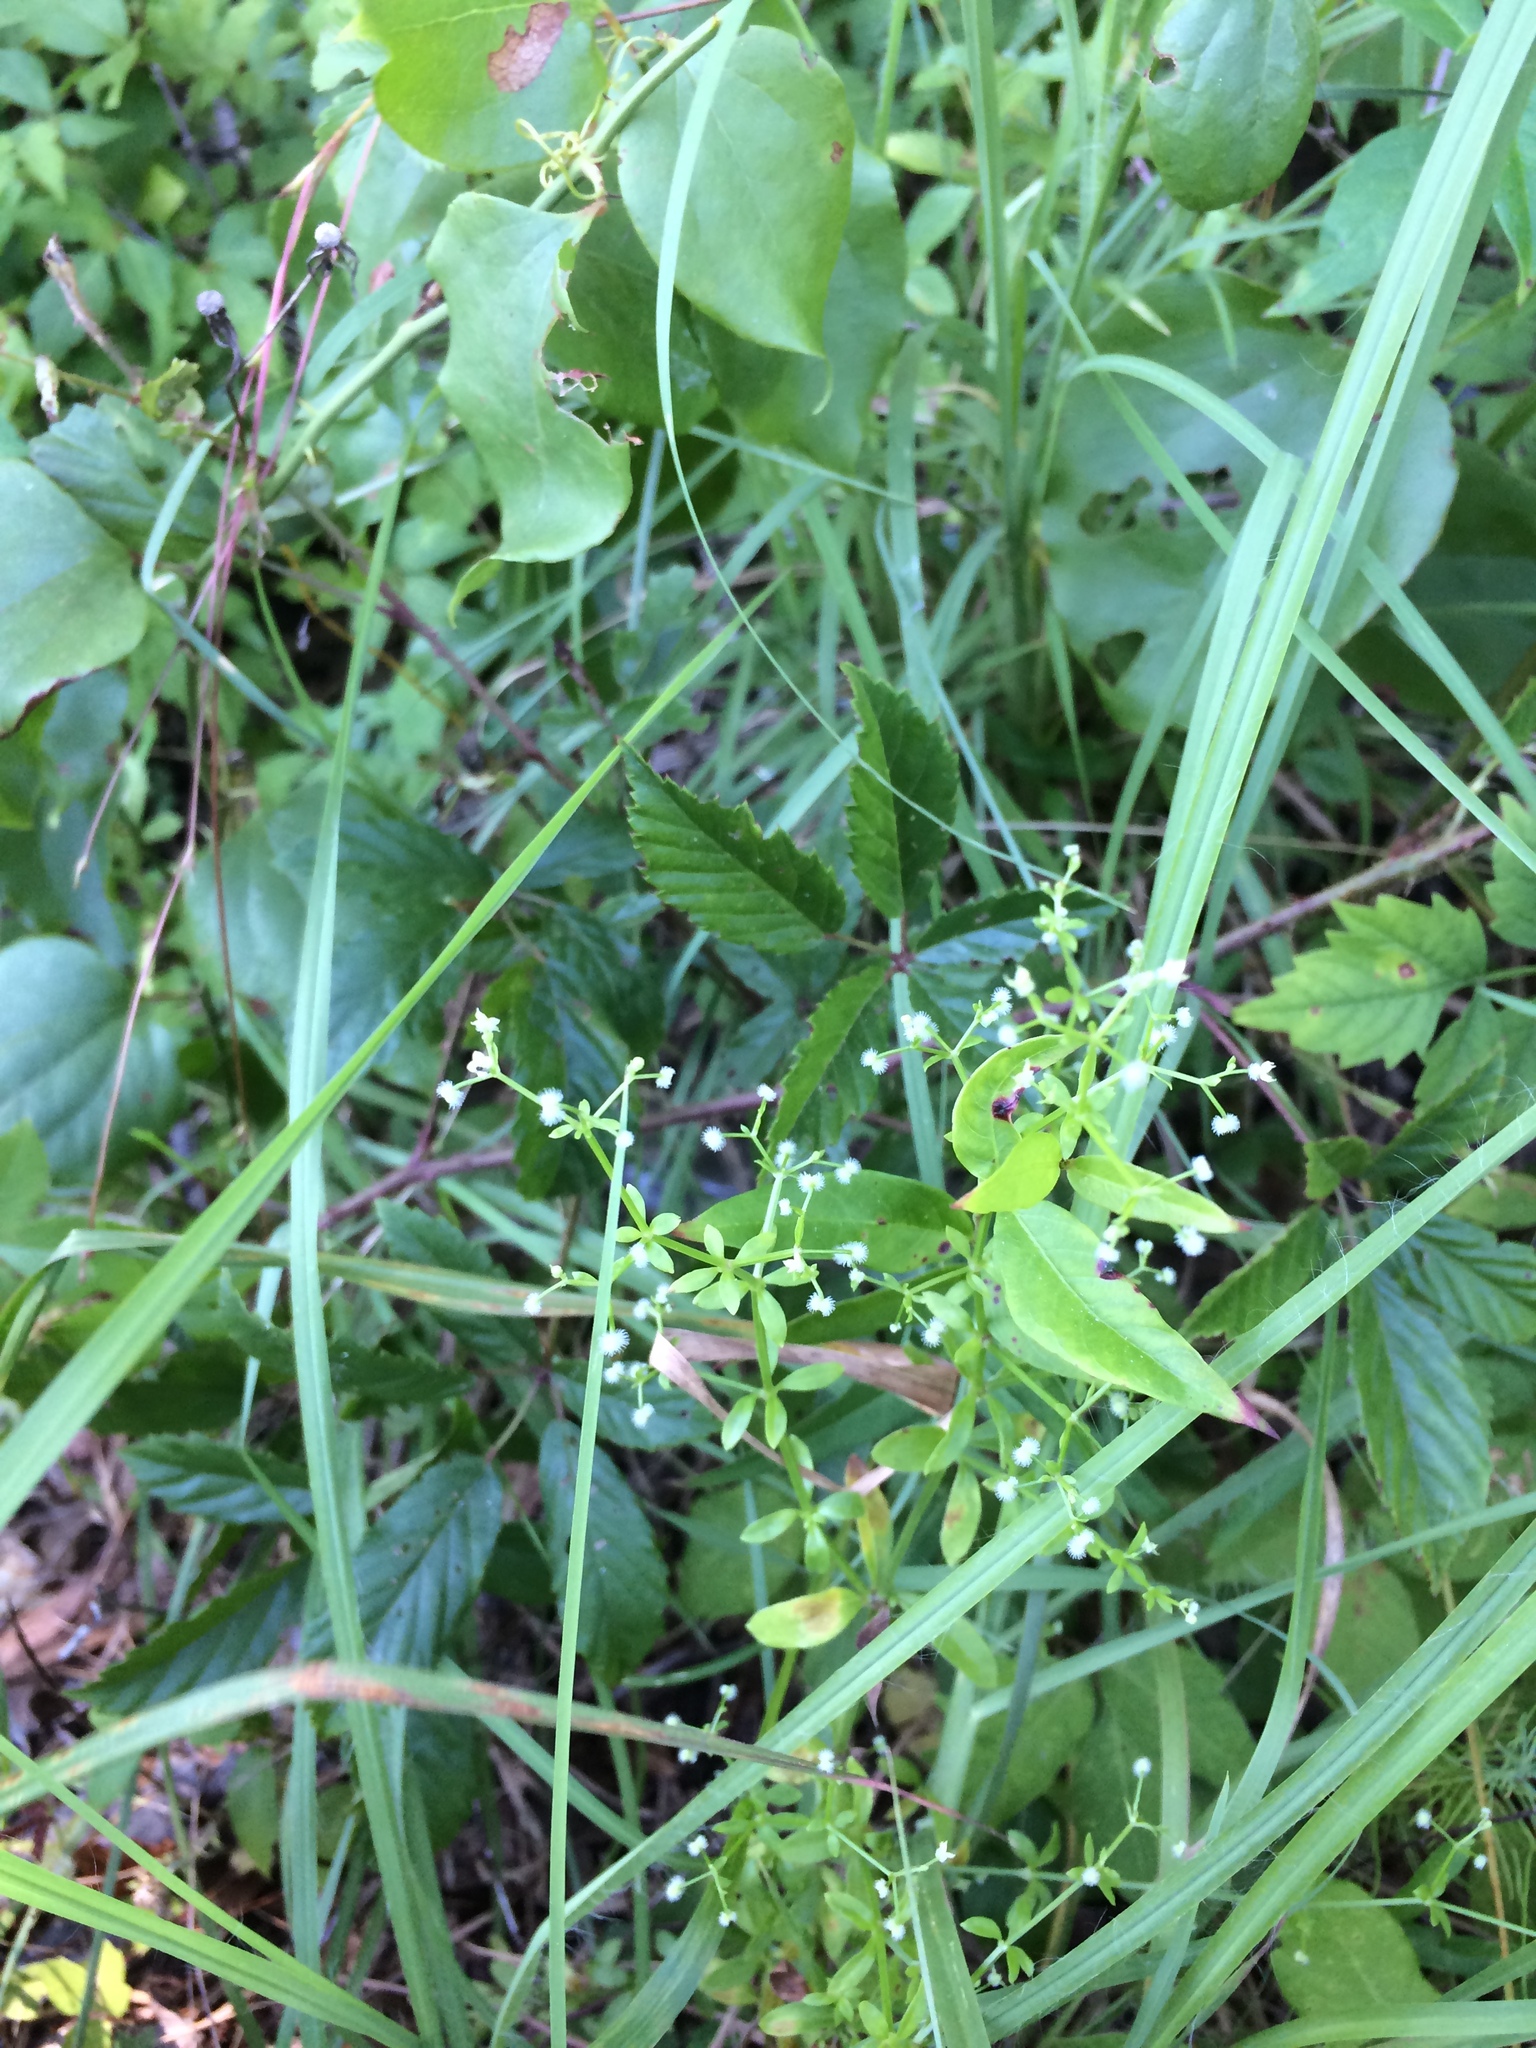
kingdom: Plantae
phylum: Tracheophyta
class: Magnoliopsida
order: Gentianales
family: Rubiaceae
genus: Galium
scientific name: Galium orizabense
